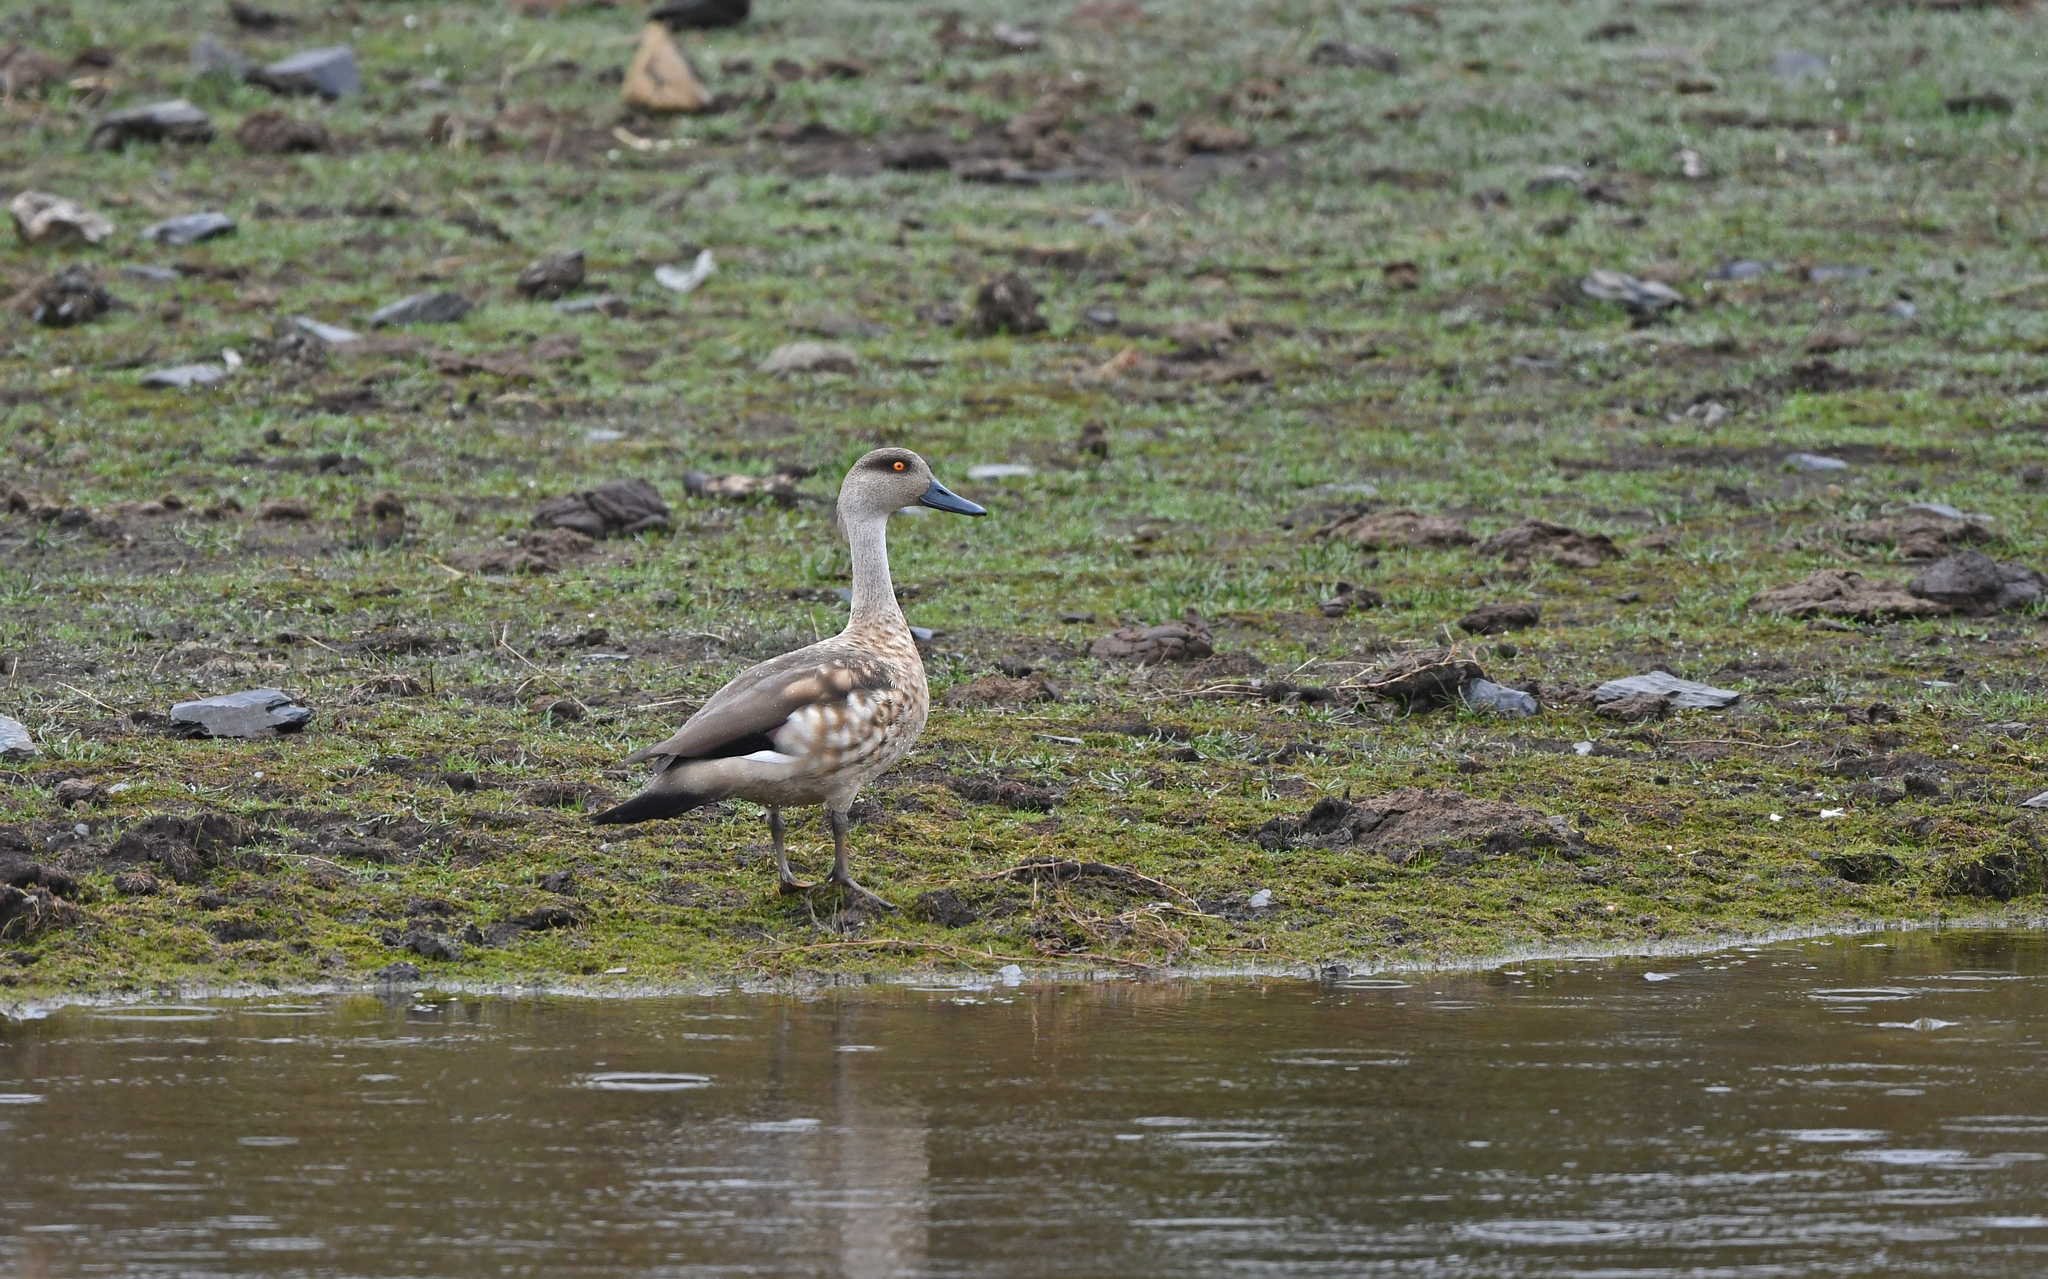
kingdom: Animalia
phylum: Chordata
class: Aves
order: Anseriformes
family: Anatidae
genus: Lophonetta
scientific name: Lophonetta specularioides
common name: Crested duck
